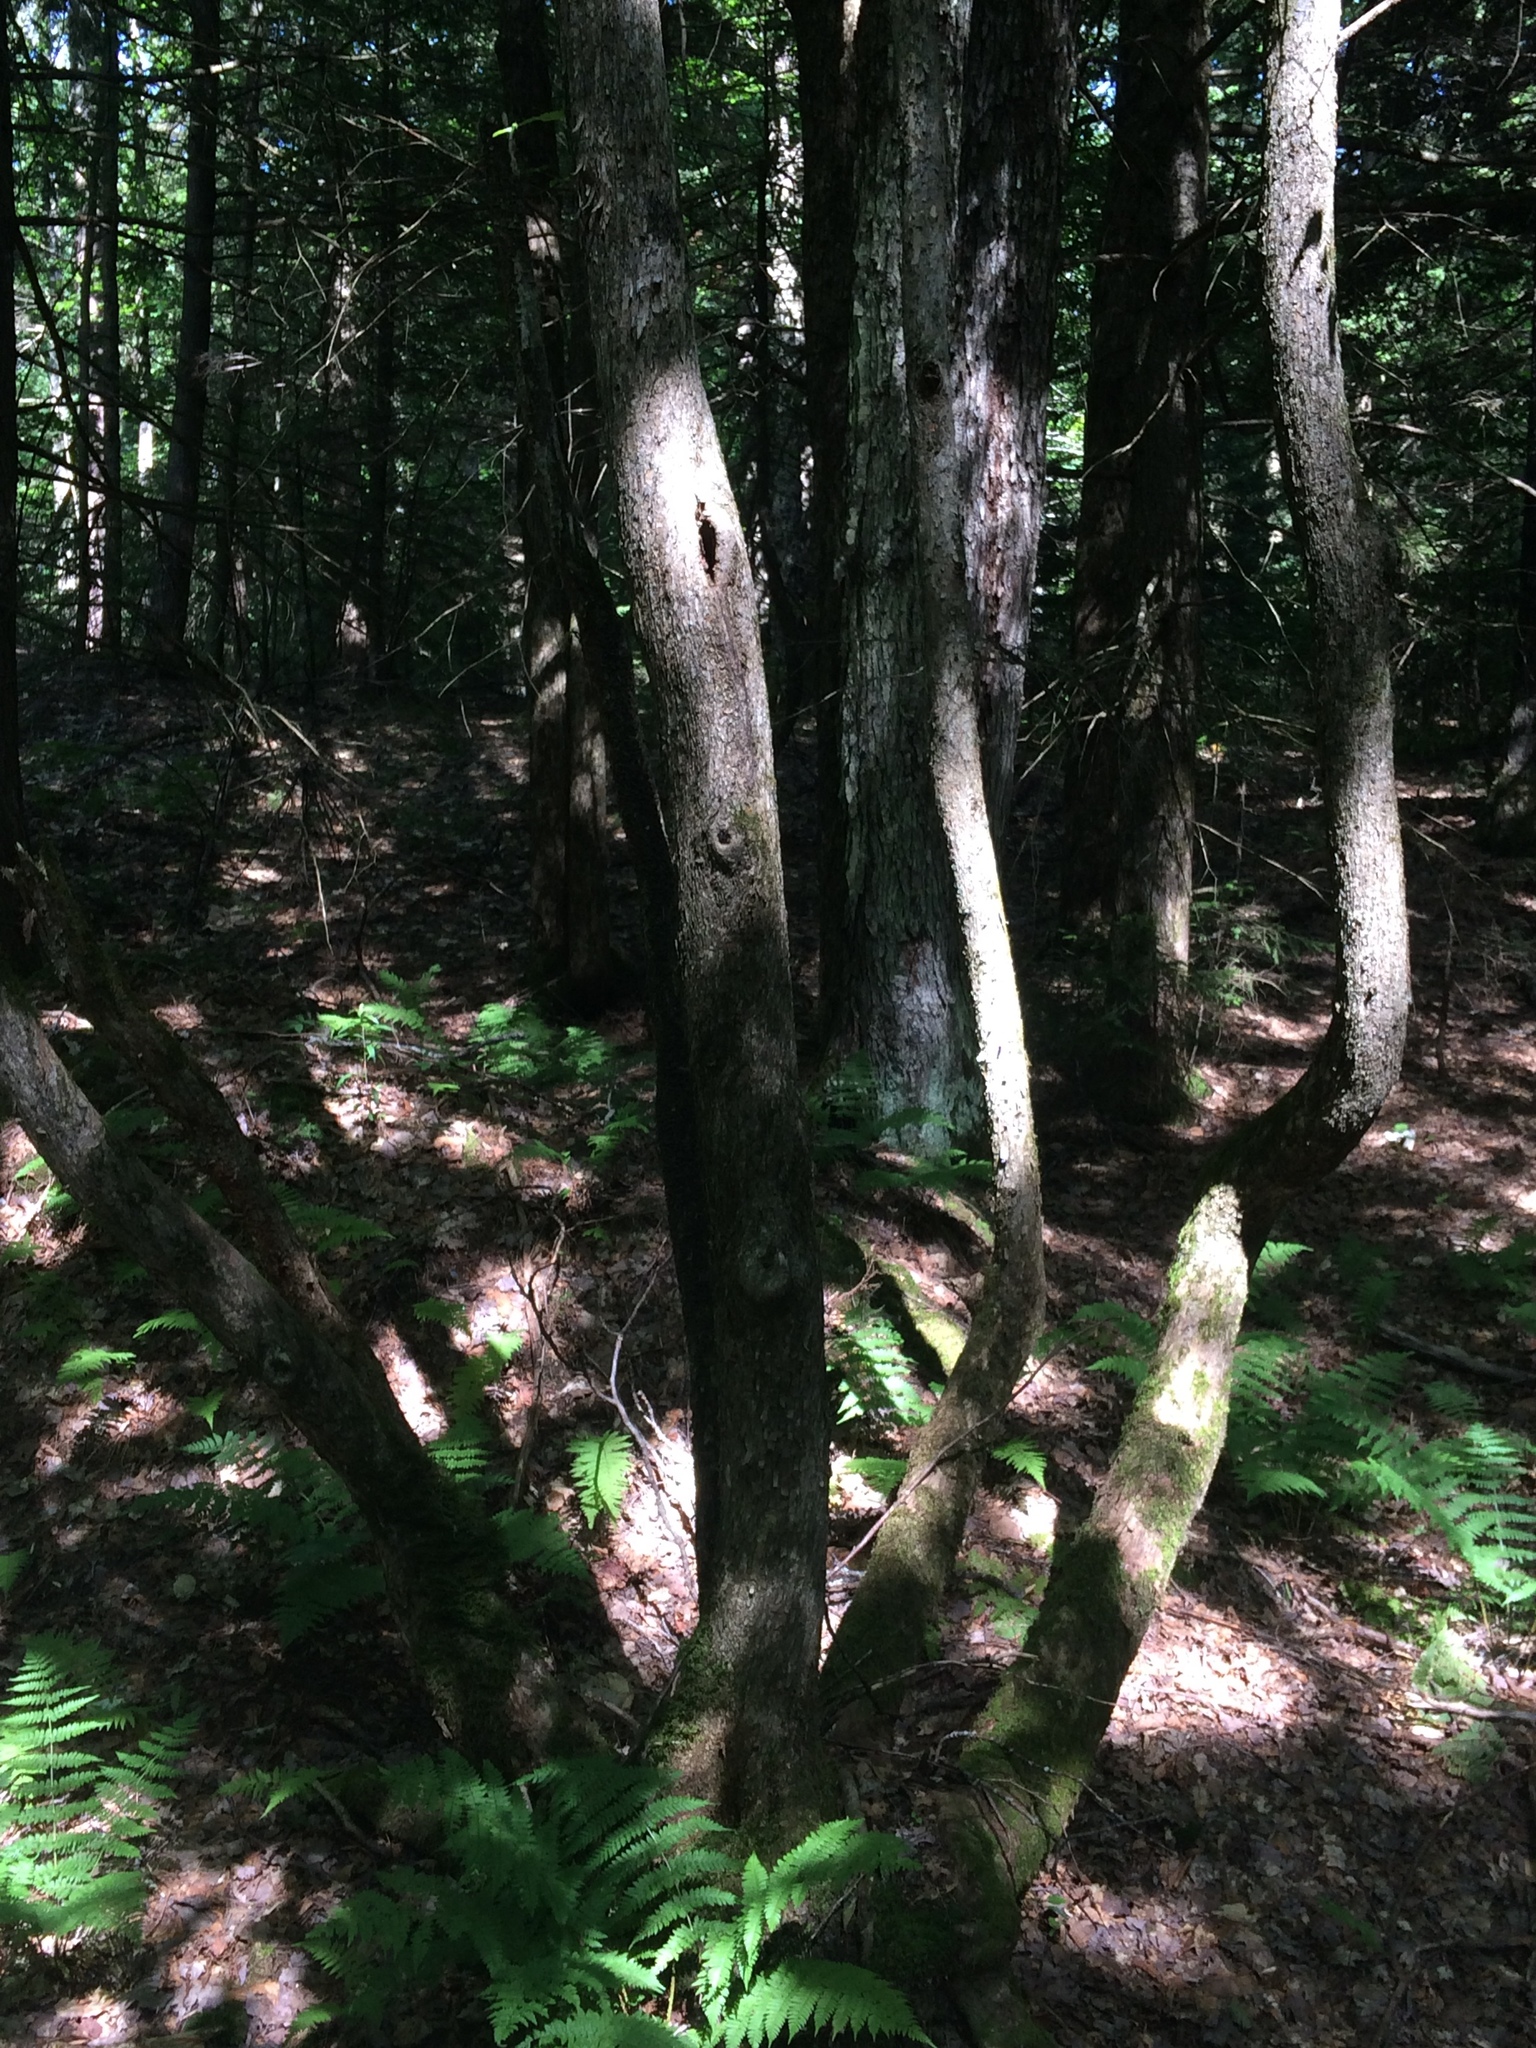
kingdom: Plantae
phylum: Tracheophyta
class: Magnoliopsida
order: Fagales
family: Betulaceae
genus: Ostrya
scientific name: Ostrya virginiana
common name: Ironwood
